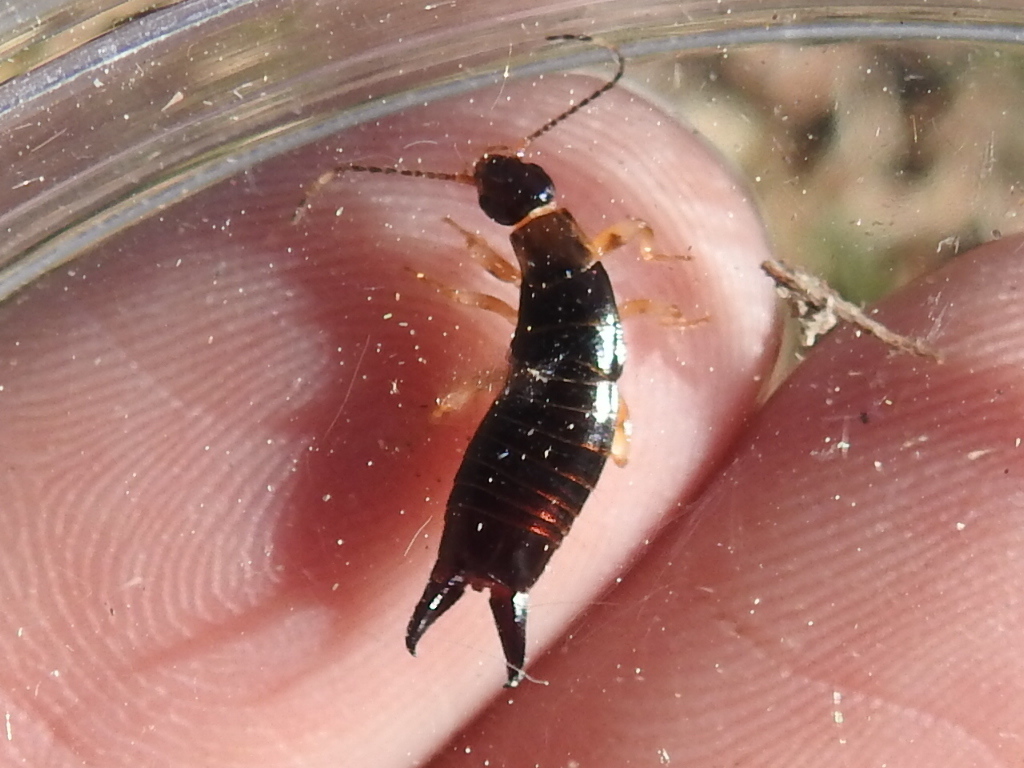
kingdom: Animalia
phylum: Arthropoda
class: Insecta
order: Dermaptera
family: Anisolabididae
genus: Euborellia
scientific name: Euborellia annulipes
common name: Ringlegged earwig
